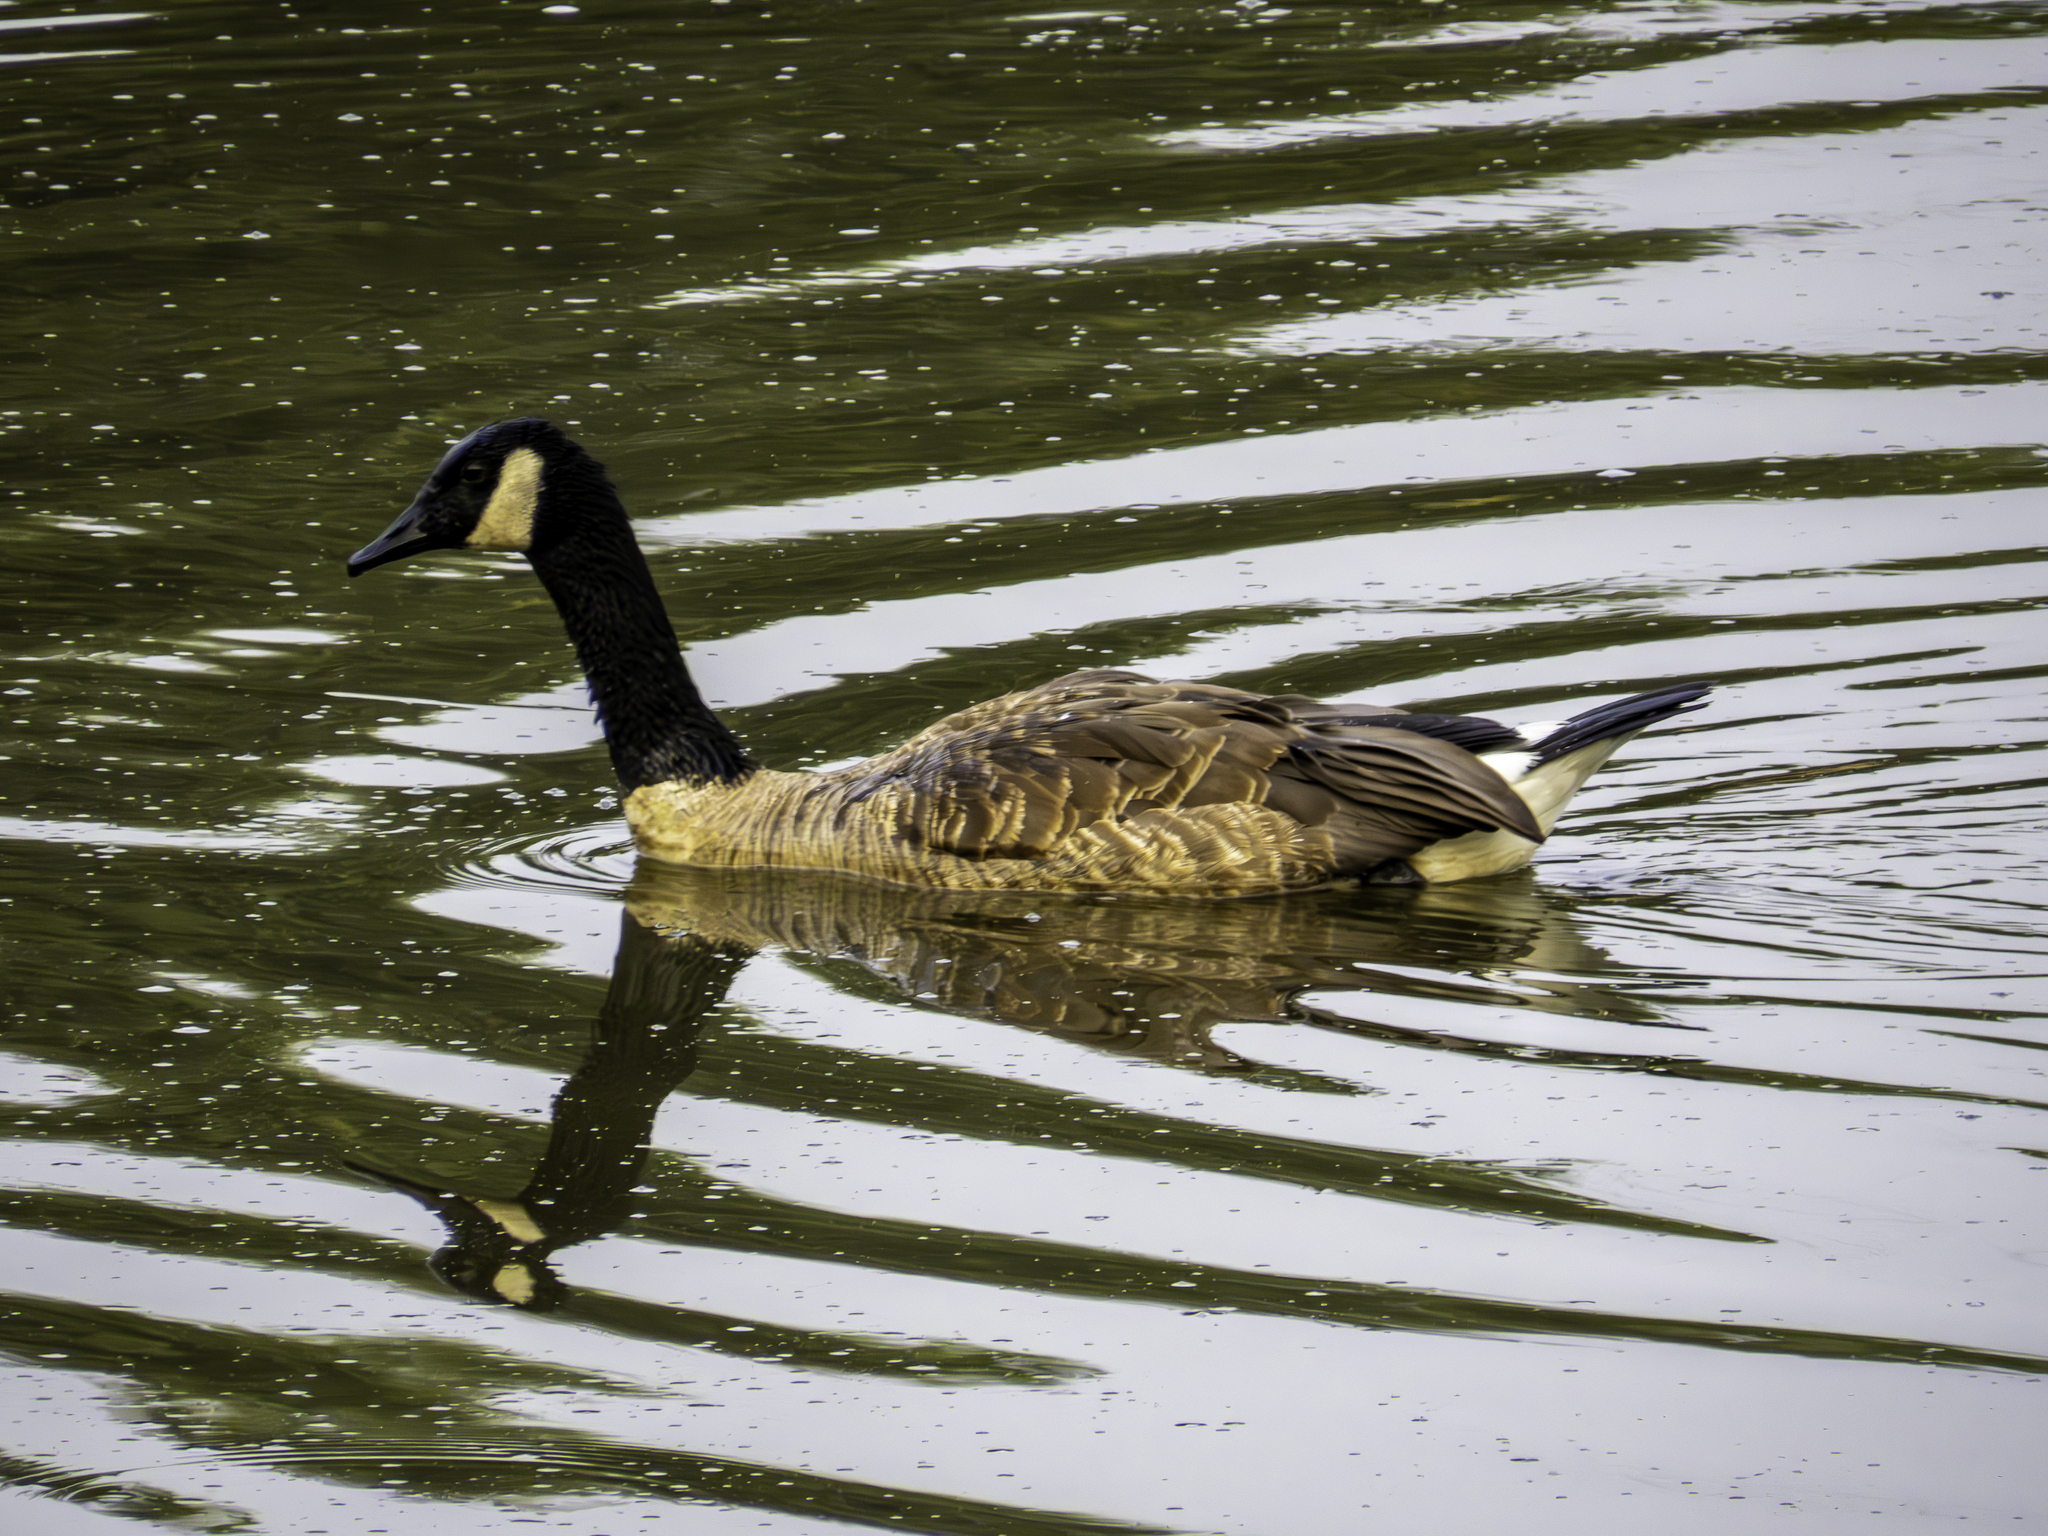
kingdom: Animalia
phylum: Chordata
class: Aves
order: Anseriformes
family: Anatidae
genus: Branta
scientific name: Branta canadensis
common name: Canada goose
